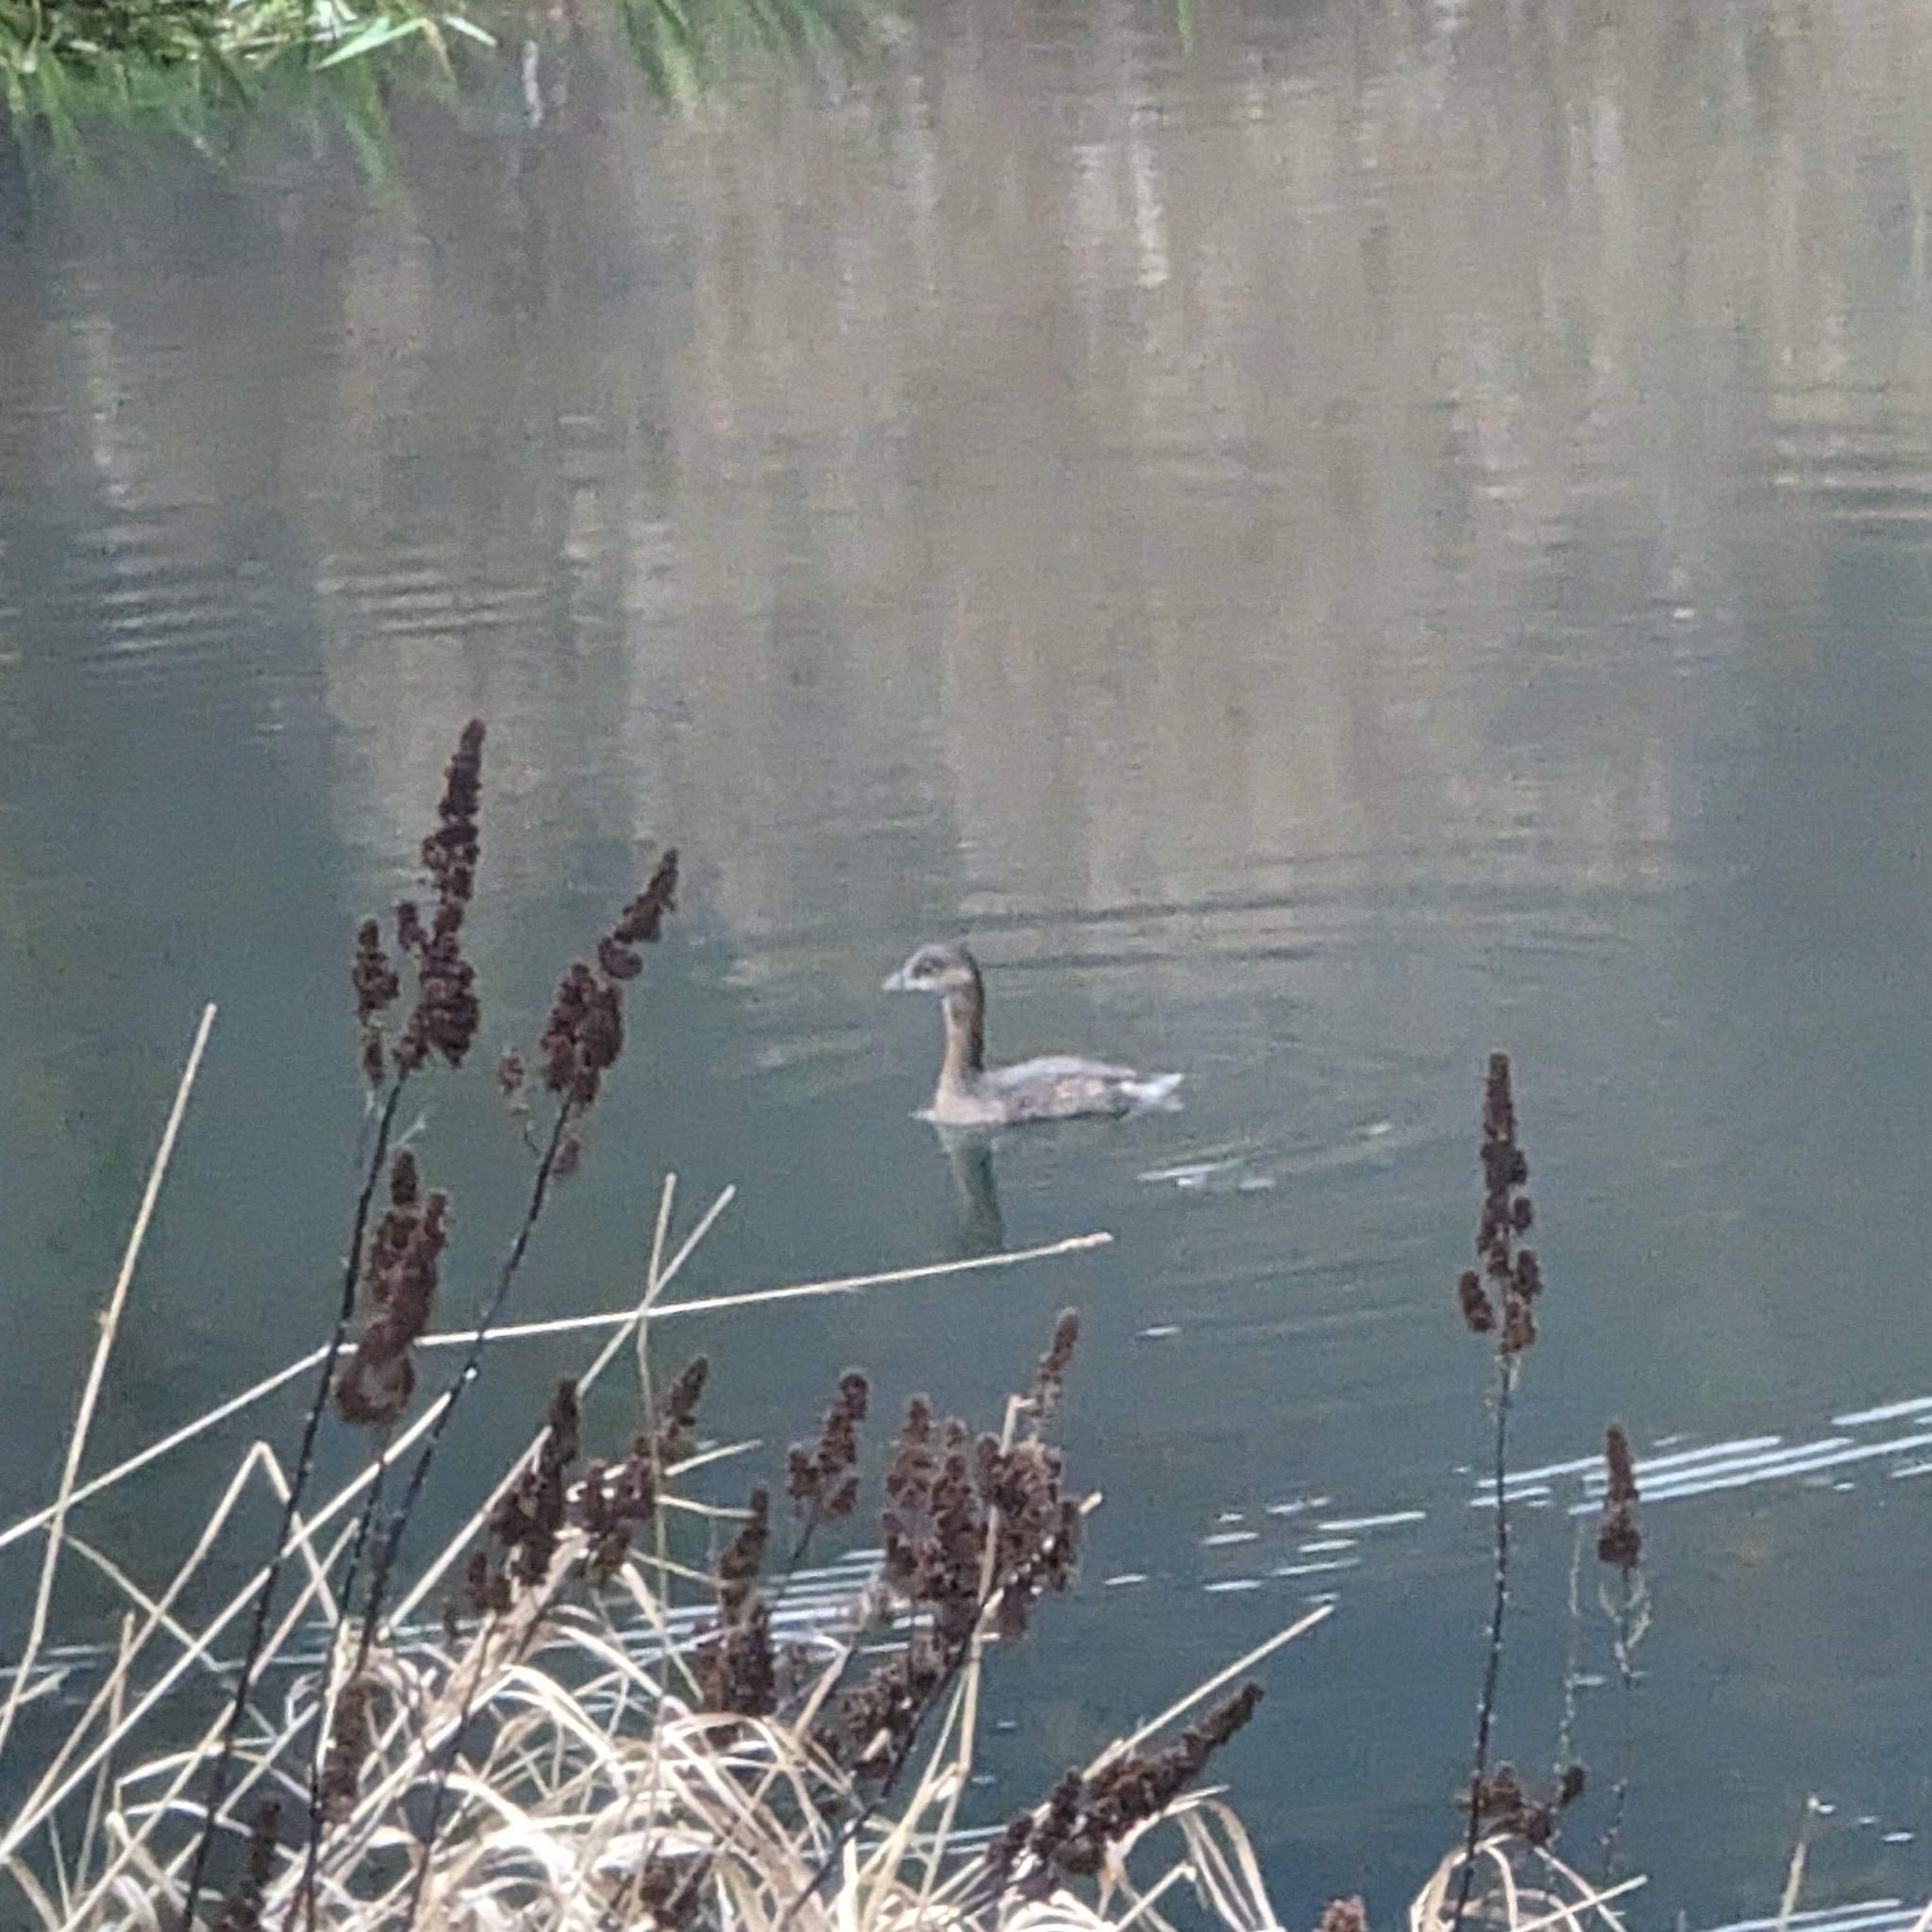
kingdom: Animalia
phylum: Chordata
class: Aves
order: Podicipediformes
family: Podicipedidae
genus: Podilymbus
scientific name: Podilymbus podiceps
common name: Pied-billed grebe
